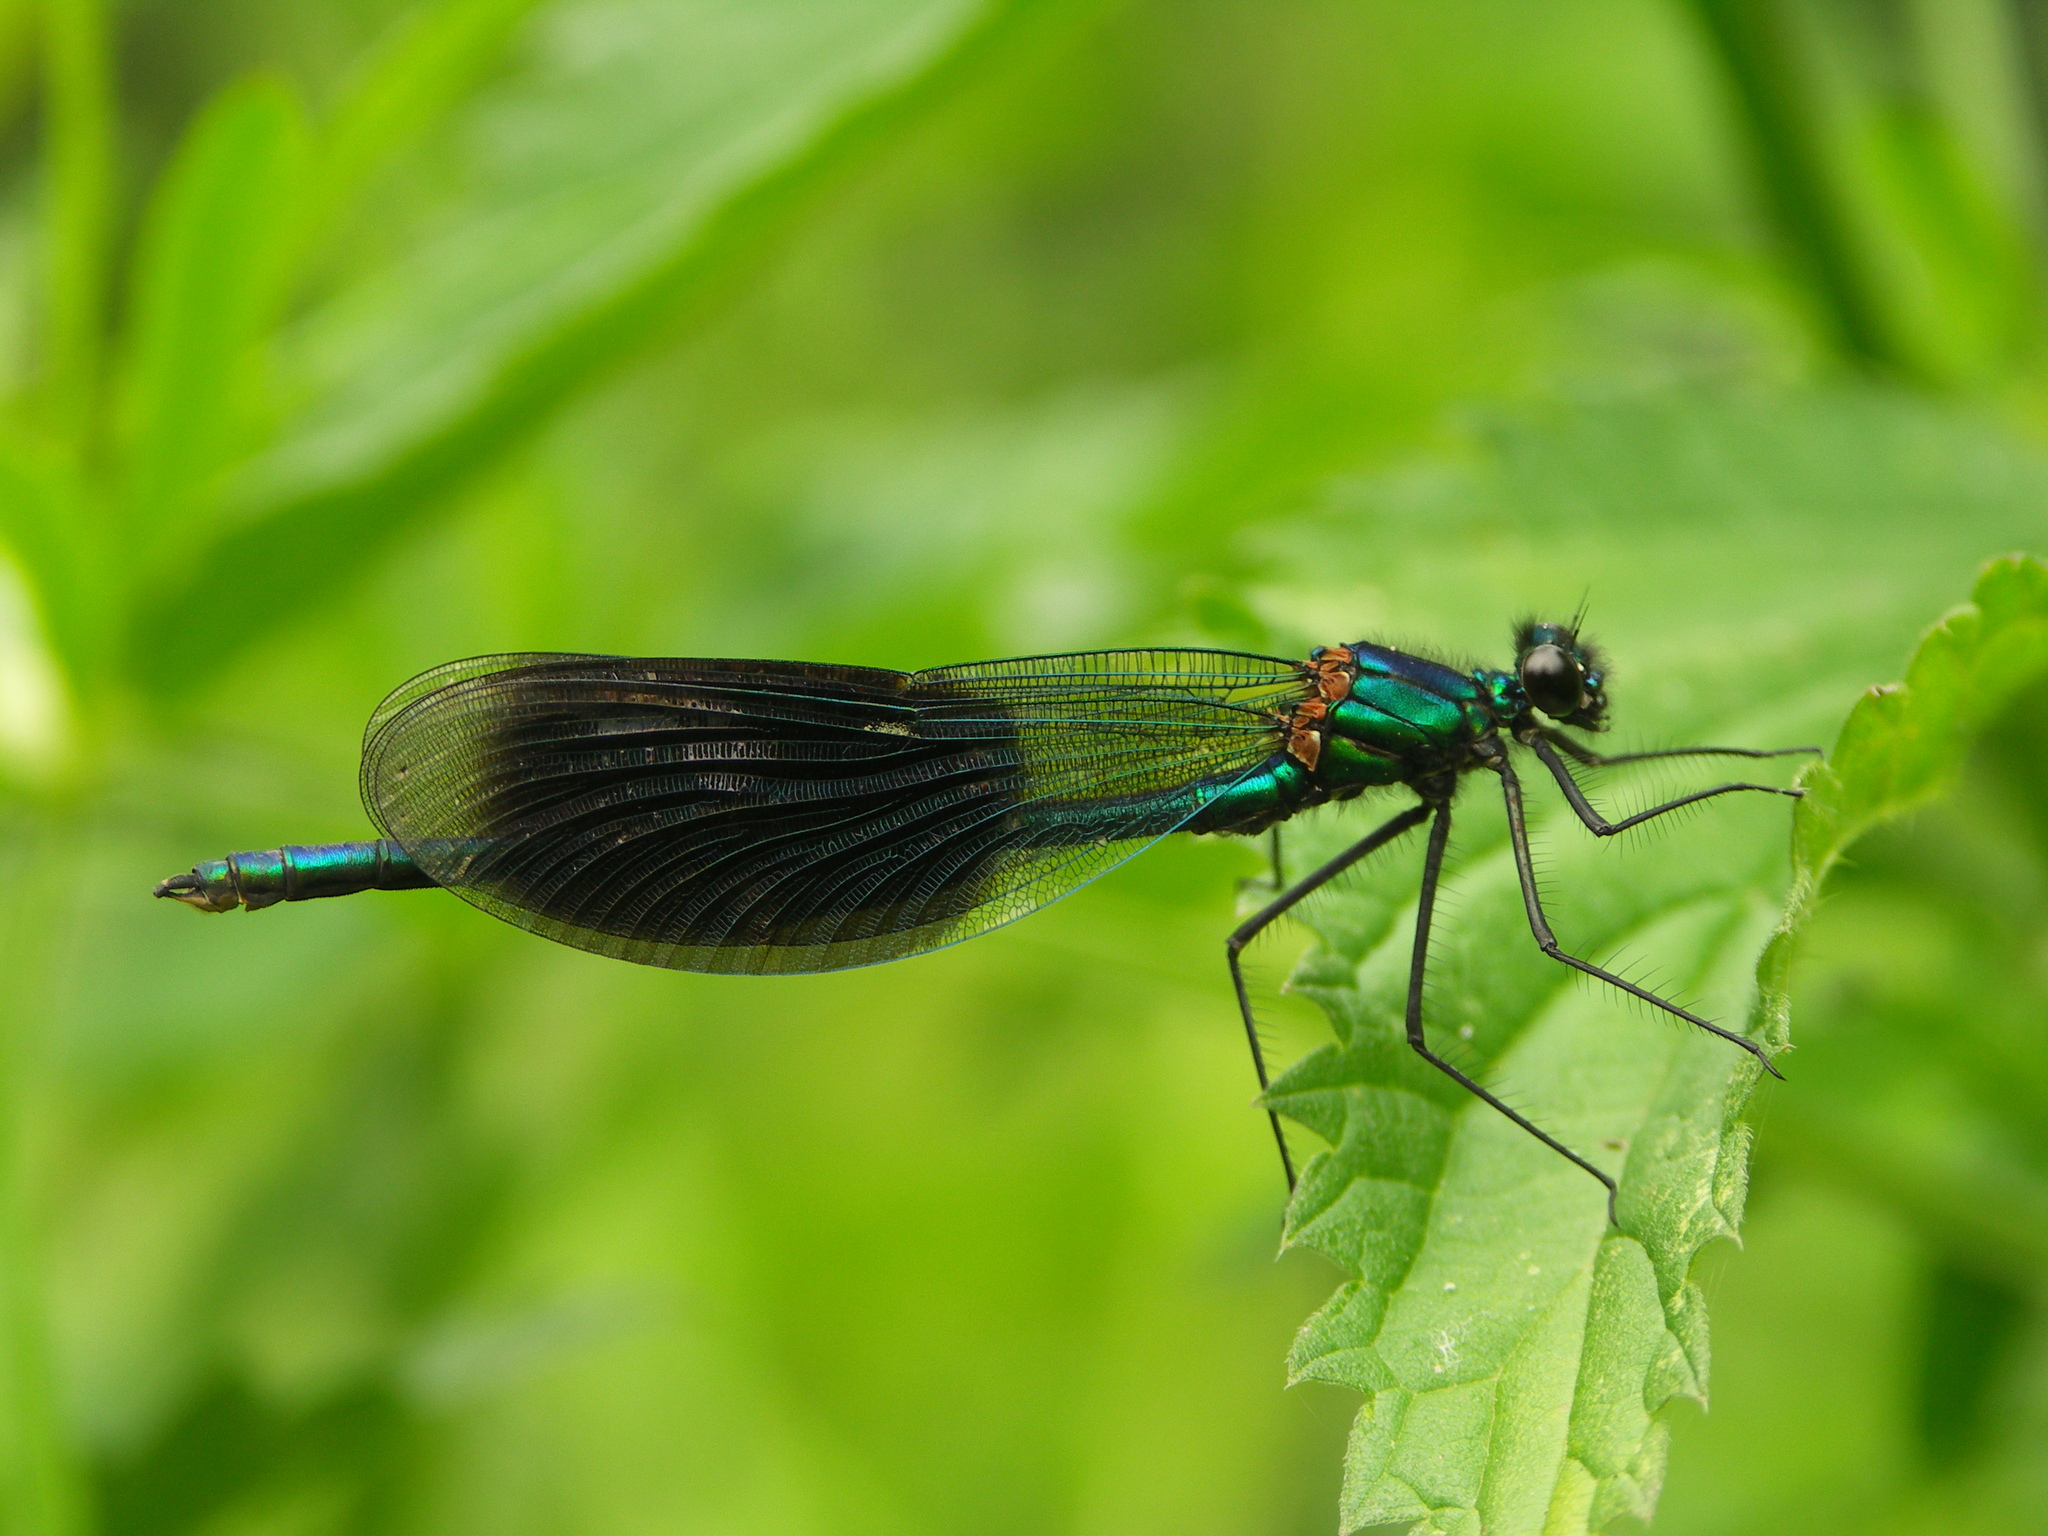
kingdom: Animalia
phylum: Arthropoda
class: Insecta
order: Odonata
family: Calopterygidae
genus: Calopteryx
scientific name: Calopteryx splendens
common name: Banded demoiselle
